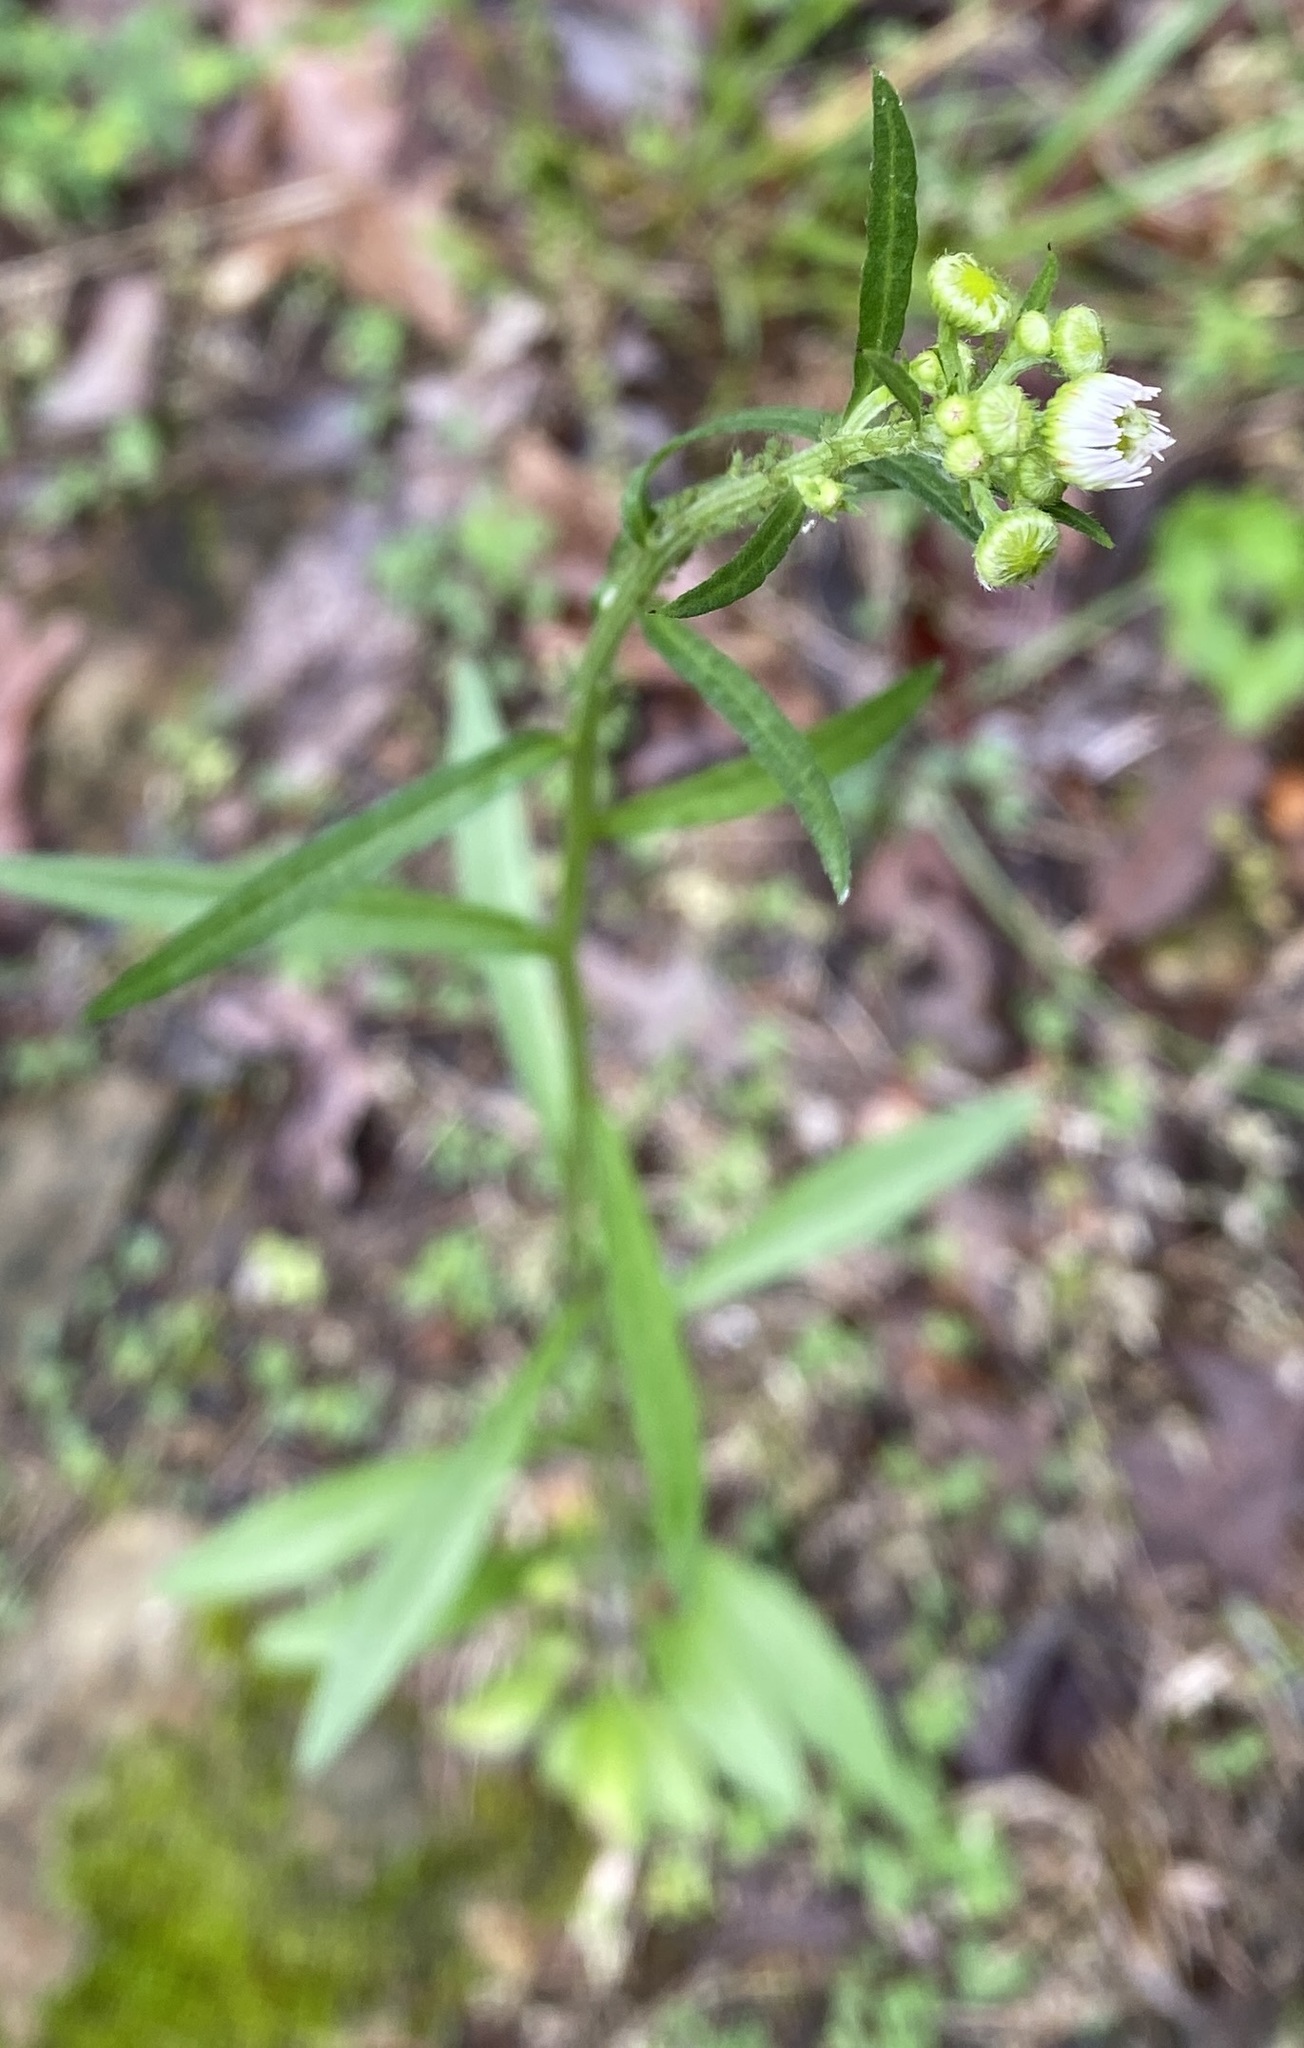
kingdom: Plantae
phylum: Tracheophyta
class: Magnoliopsida
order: Asterales
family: Asteraceae
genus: Erigeron
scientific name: Erigeron strigosus
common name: Common eastern fleabane
